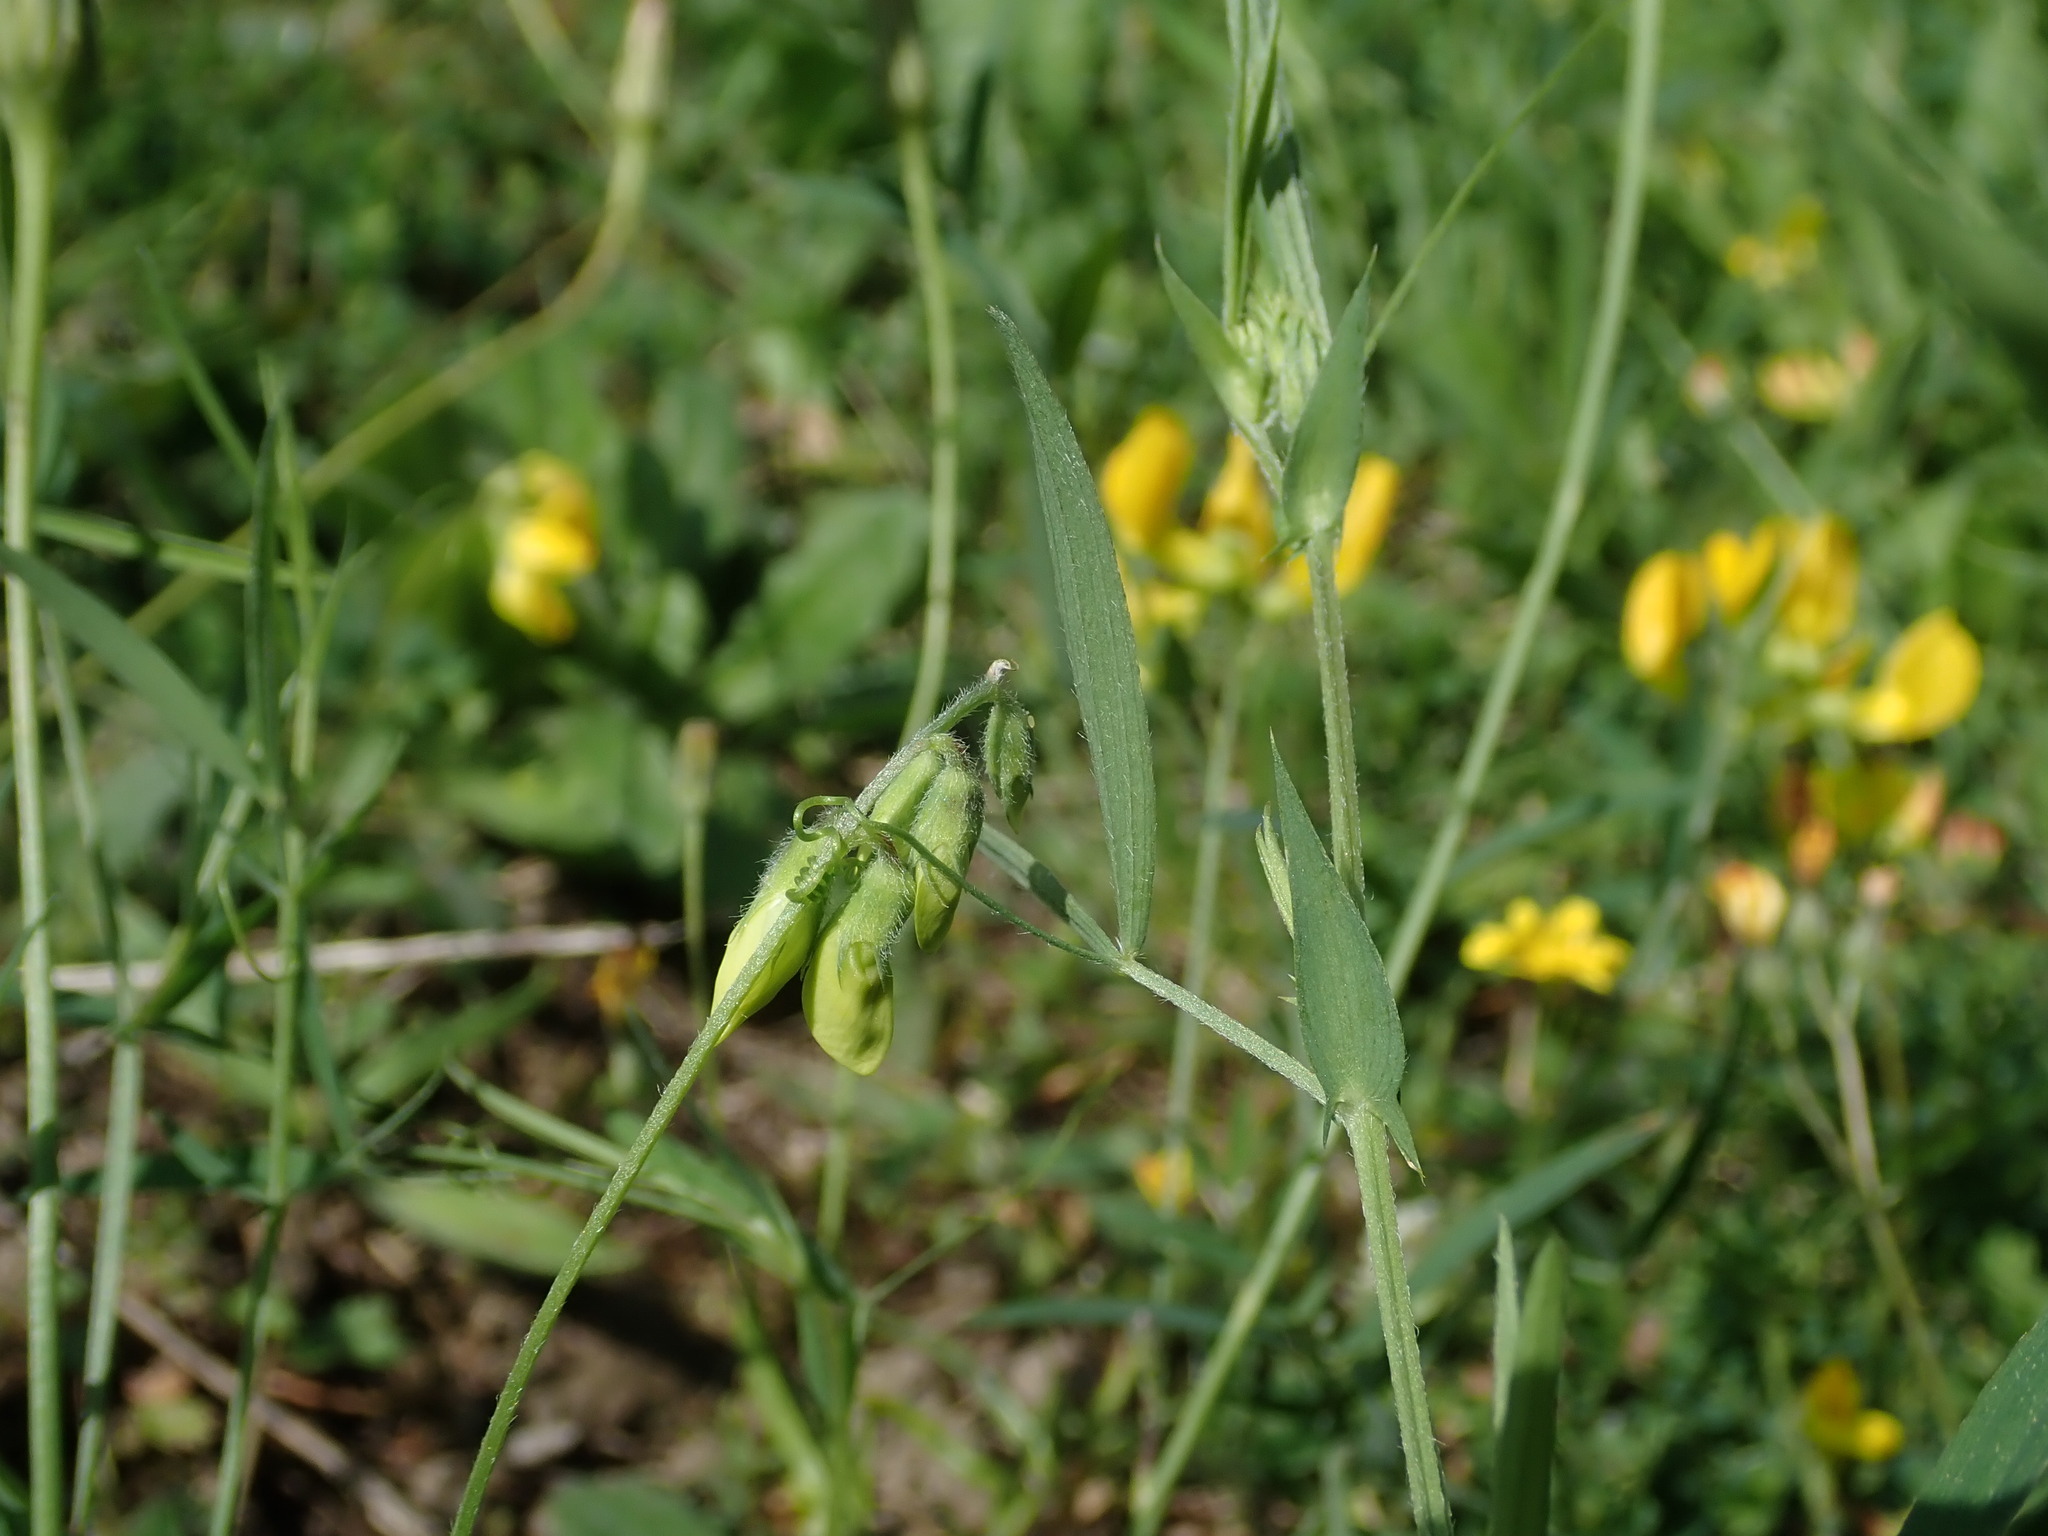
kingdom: Plantae
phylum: Tracheophyta
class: Magnoliopsida
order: Fabales
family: Fabaceae
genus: Lathyrus
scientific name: Lathyrus pratensis
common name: Meadow vetchling
